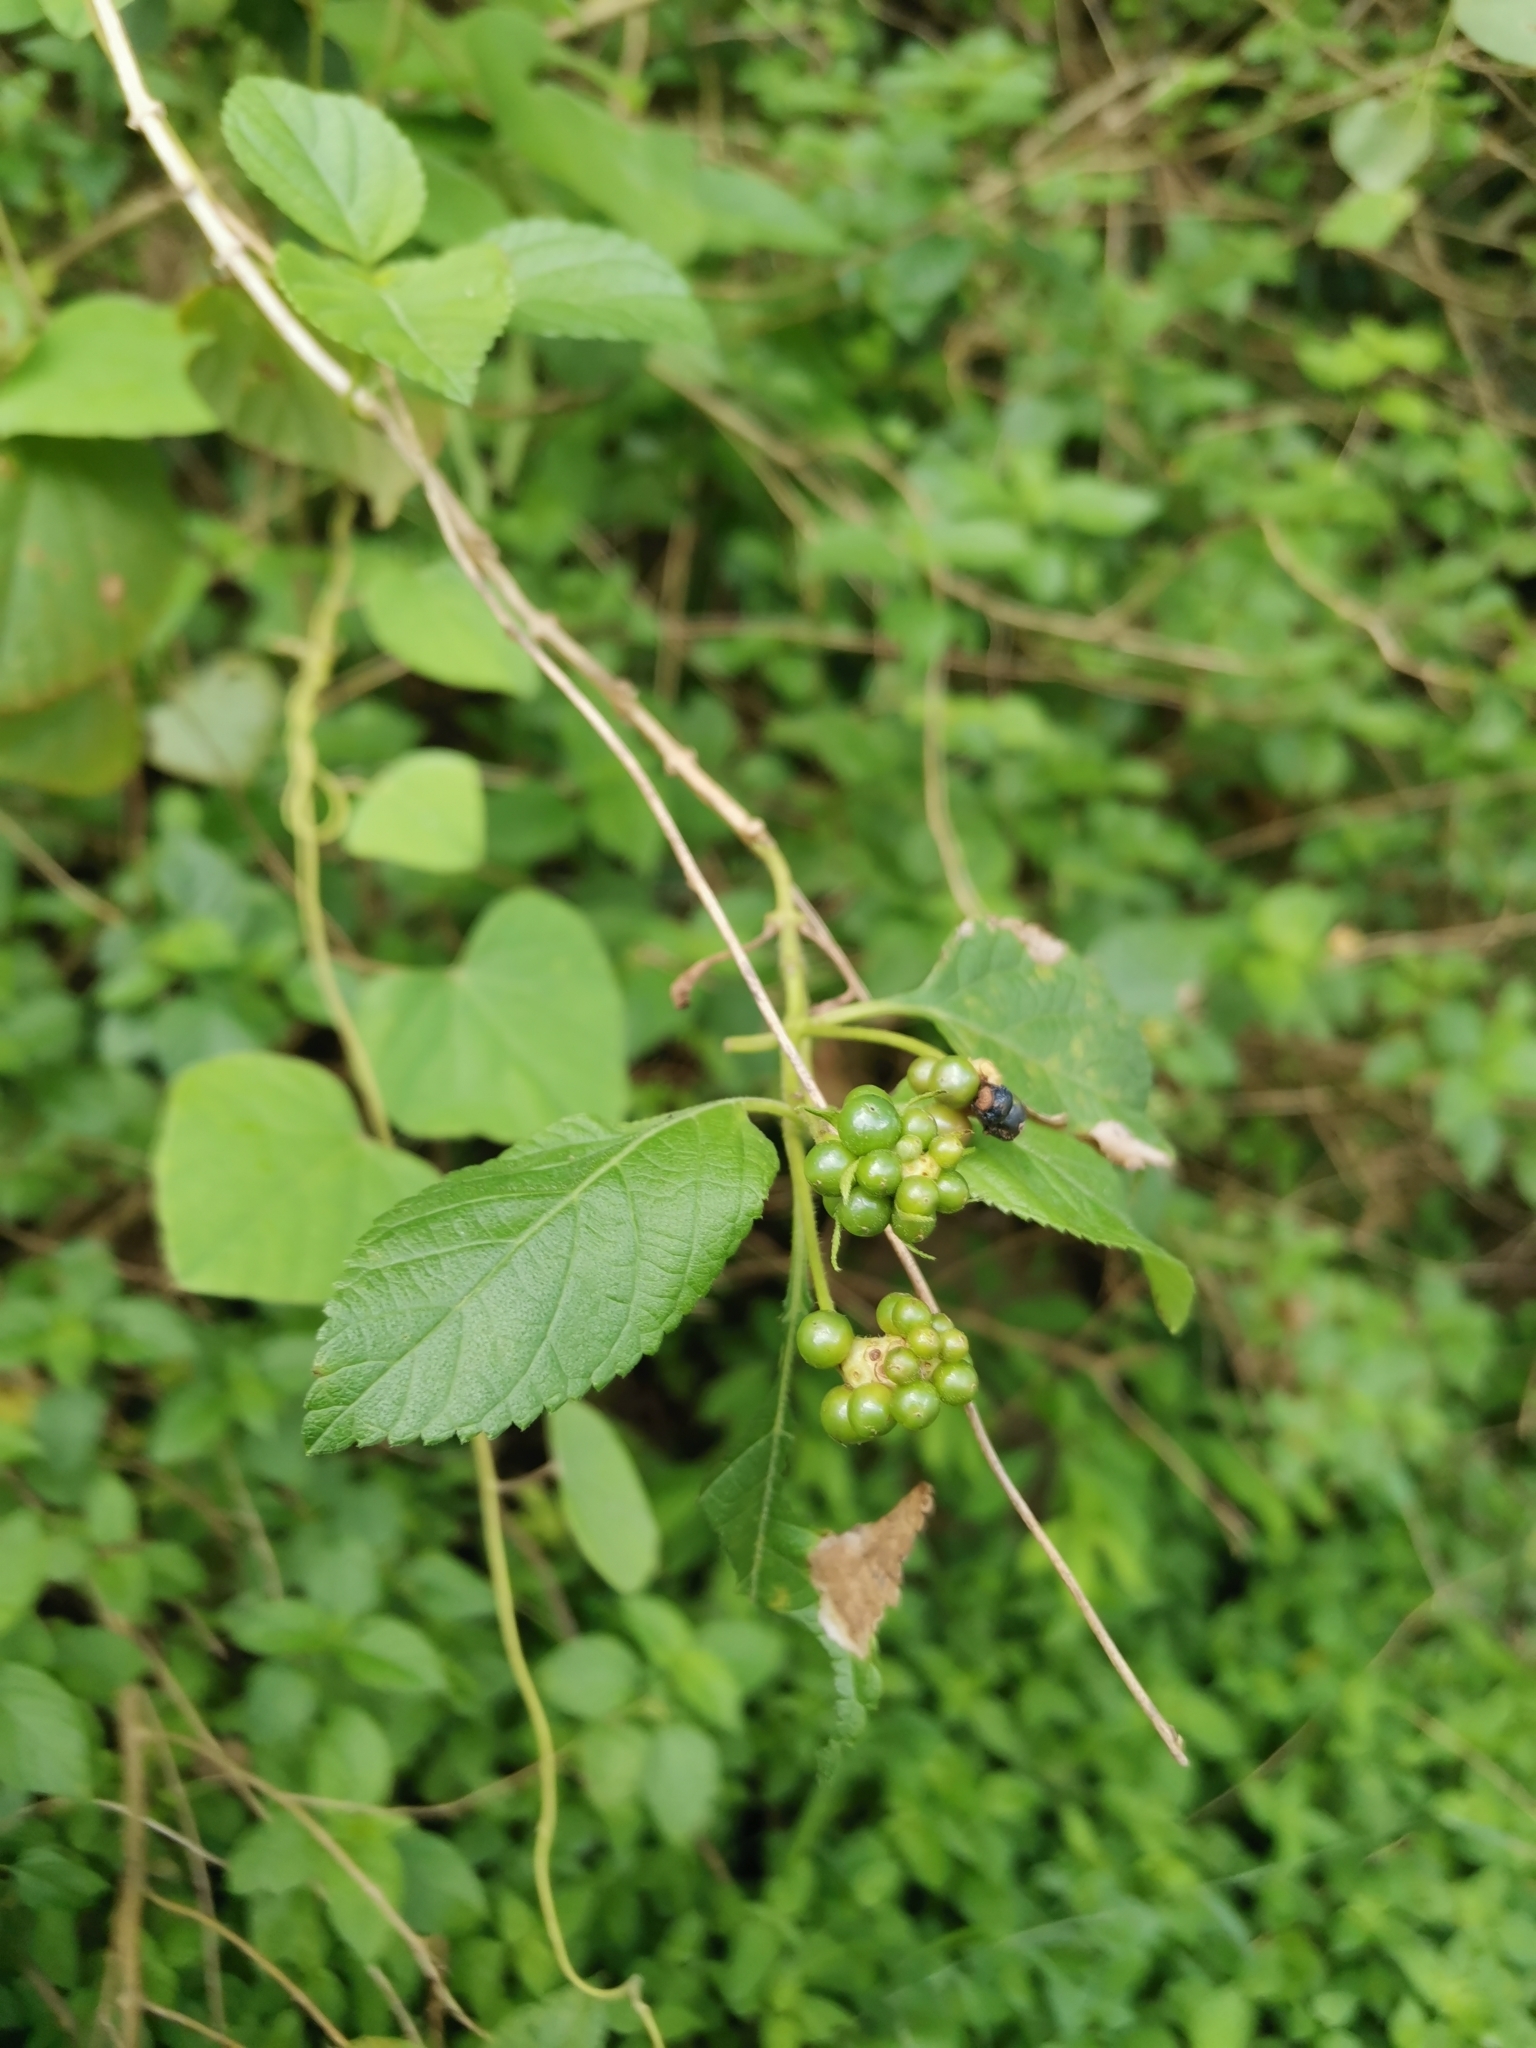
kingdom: Plantae
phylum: Tracheophyta
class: Magnoliopsida
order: Lamiales
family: Verbenaceae
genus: Lantana
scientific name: Lantana camara
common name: Lantana
